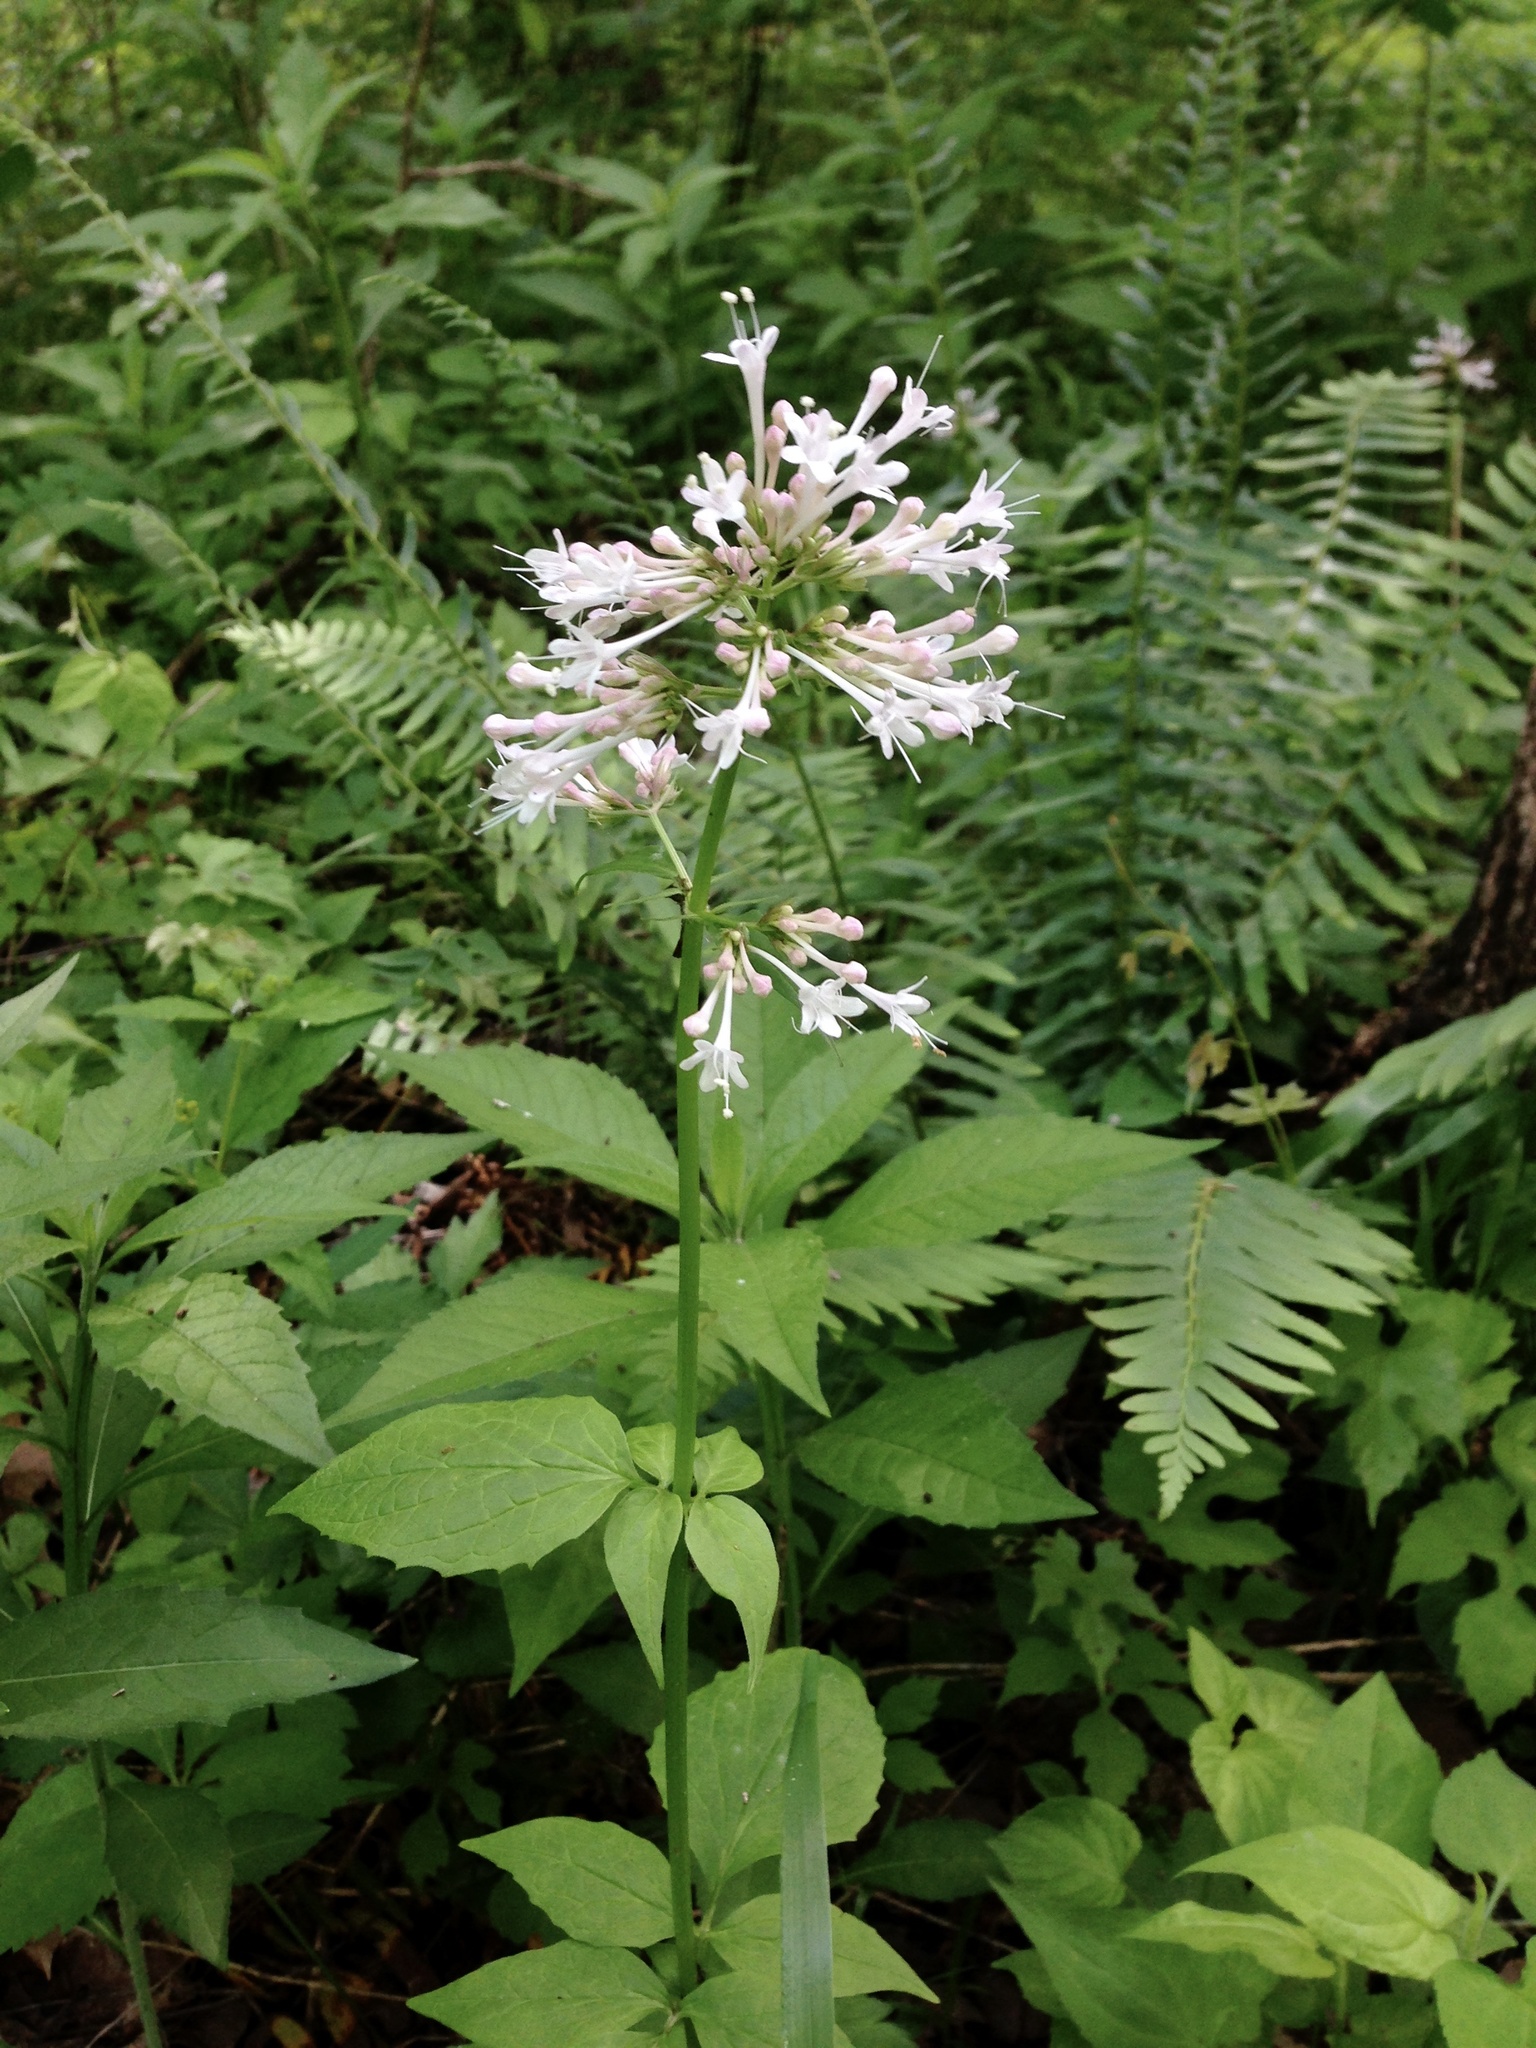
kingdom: Plantae
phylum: Tracheophyta
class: Magnoliopsida
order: Dipsacales
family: Caprifoliaceae
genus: Valeriana
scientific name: Valeriana pauciflora
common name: Long-tube valeriana
